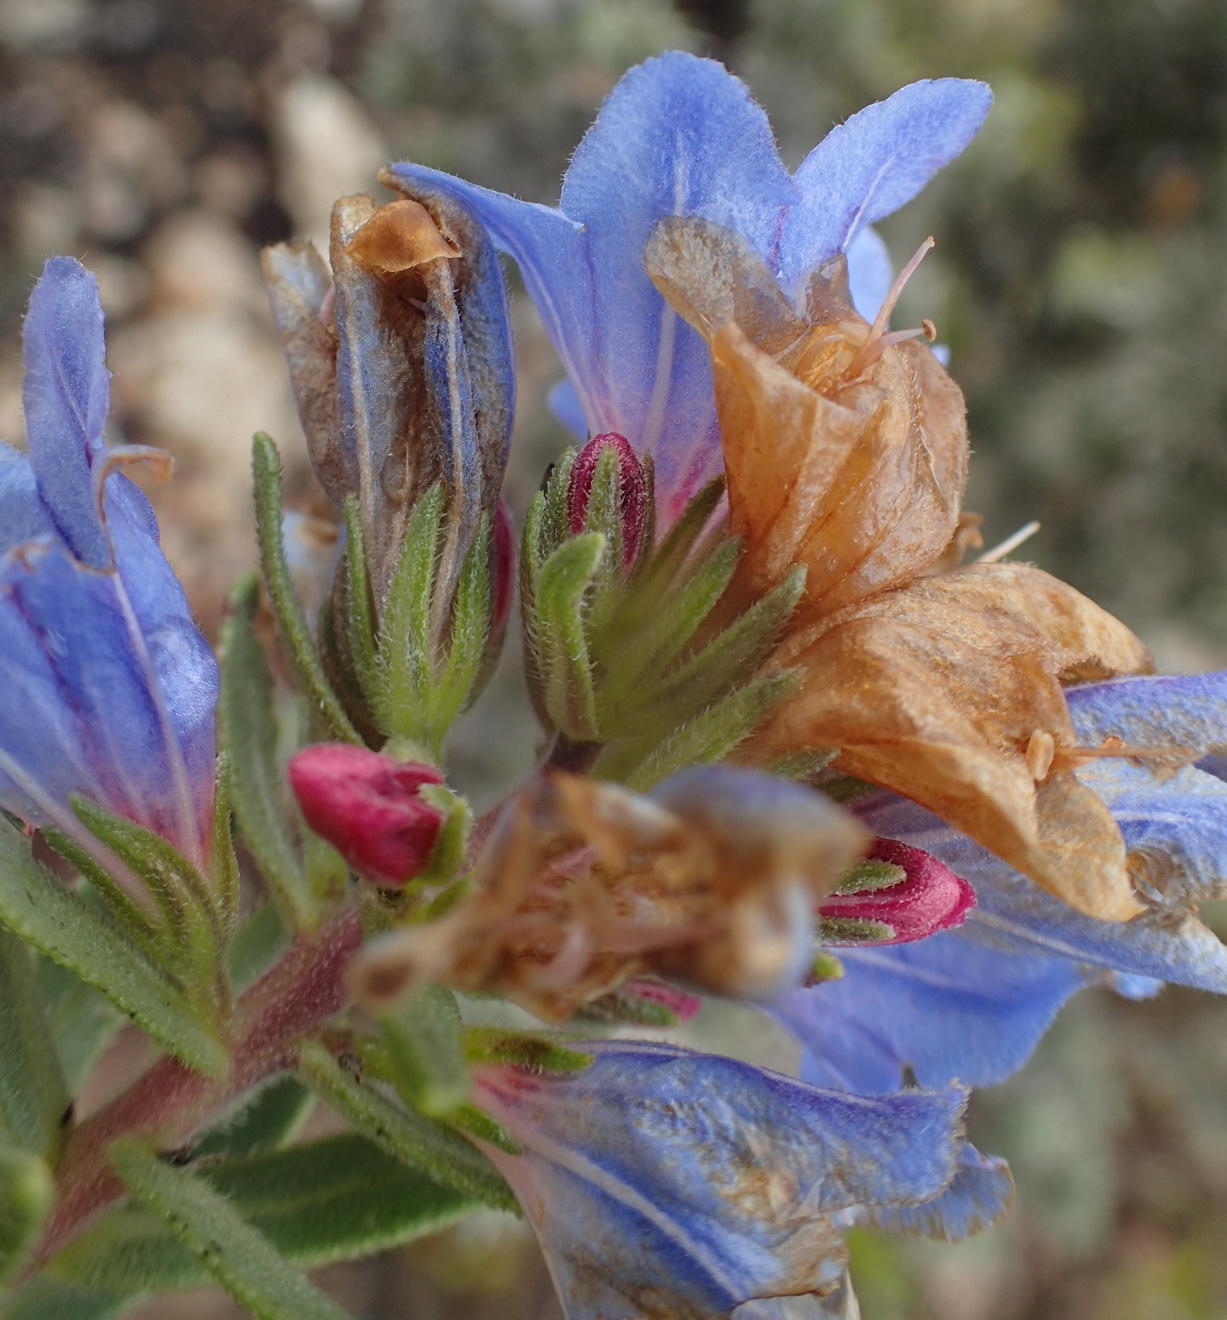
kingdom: Plantae
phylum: Tracheophyta
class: Magnoliopsida
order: Boraginales
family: Boraginaceae
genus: Lobostemon
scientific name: Lobostemon fruticosus
